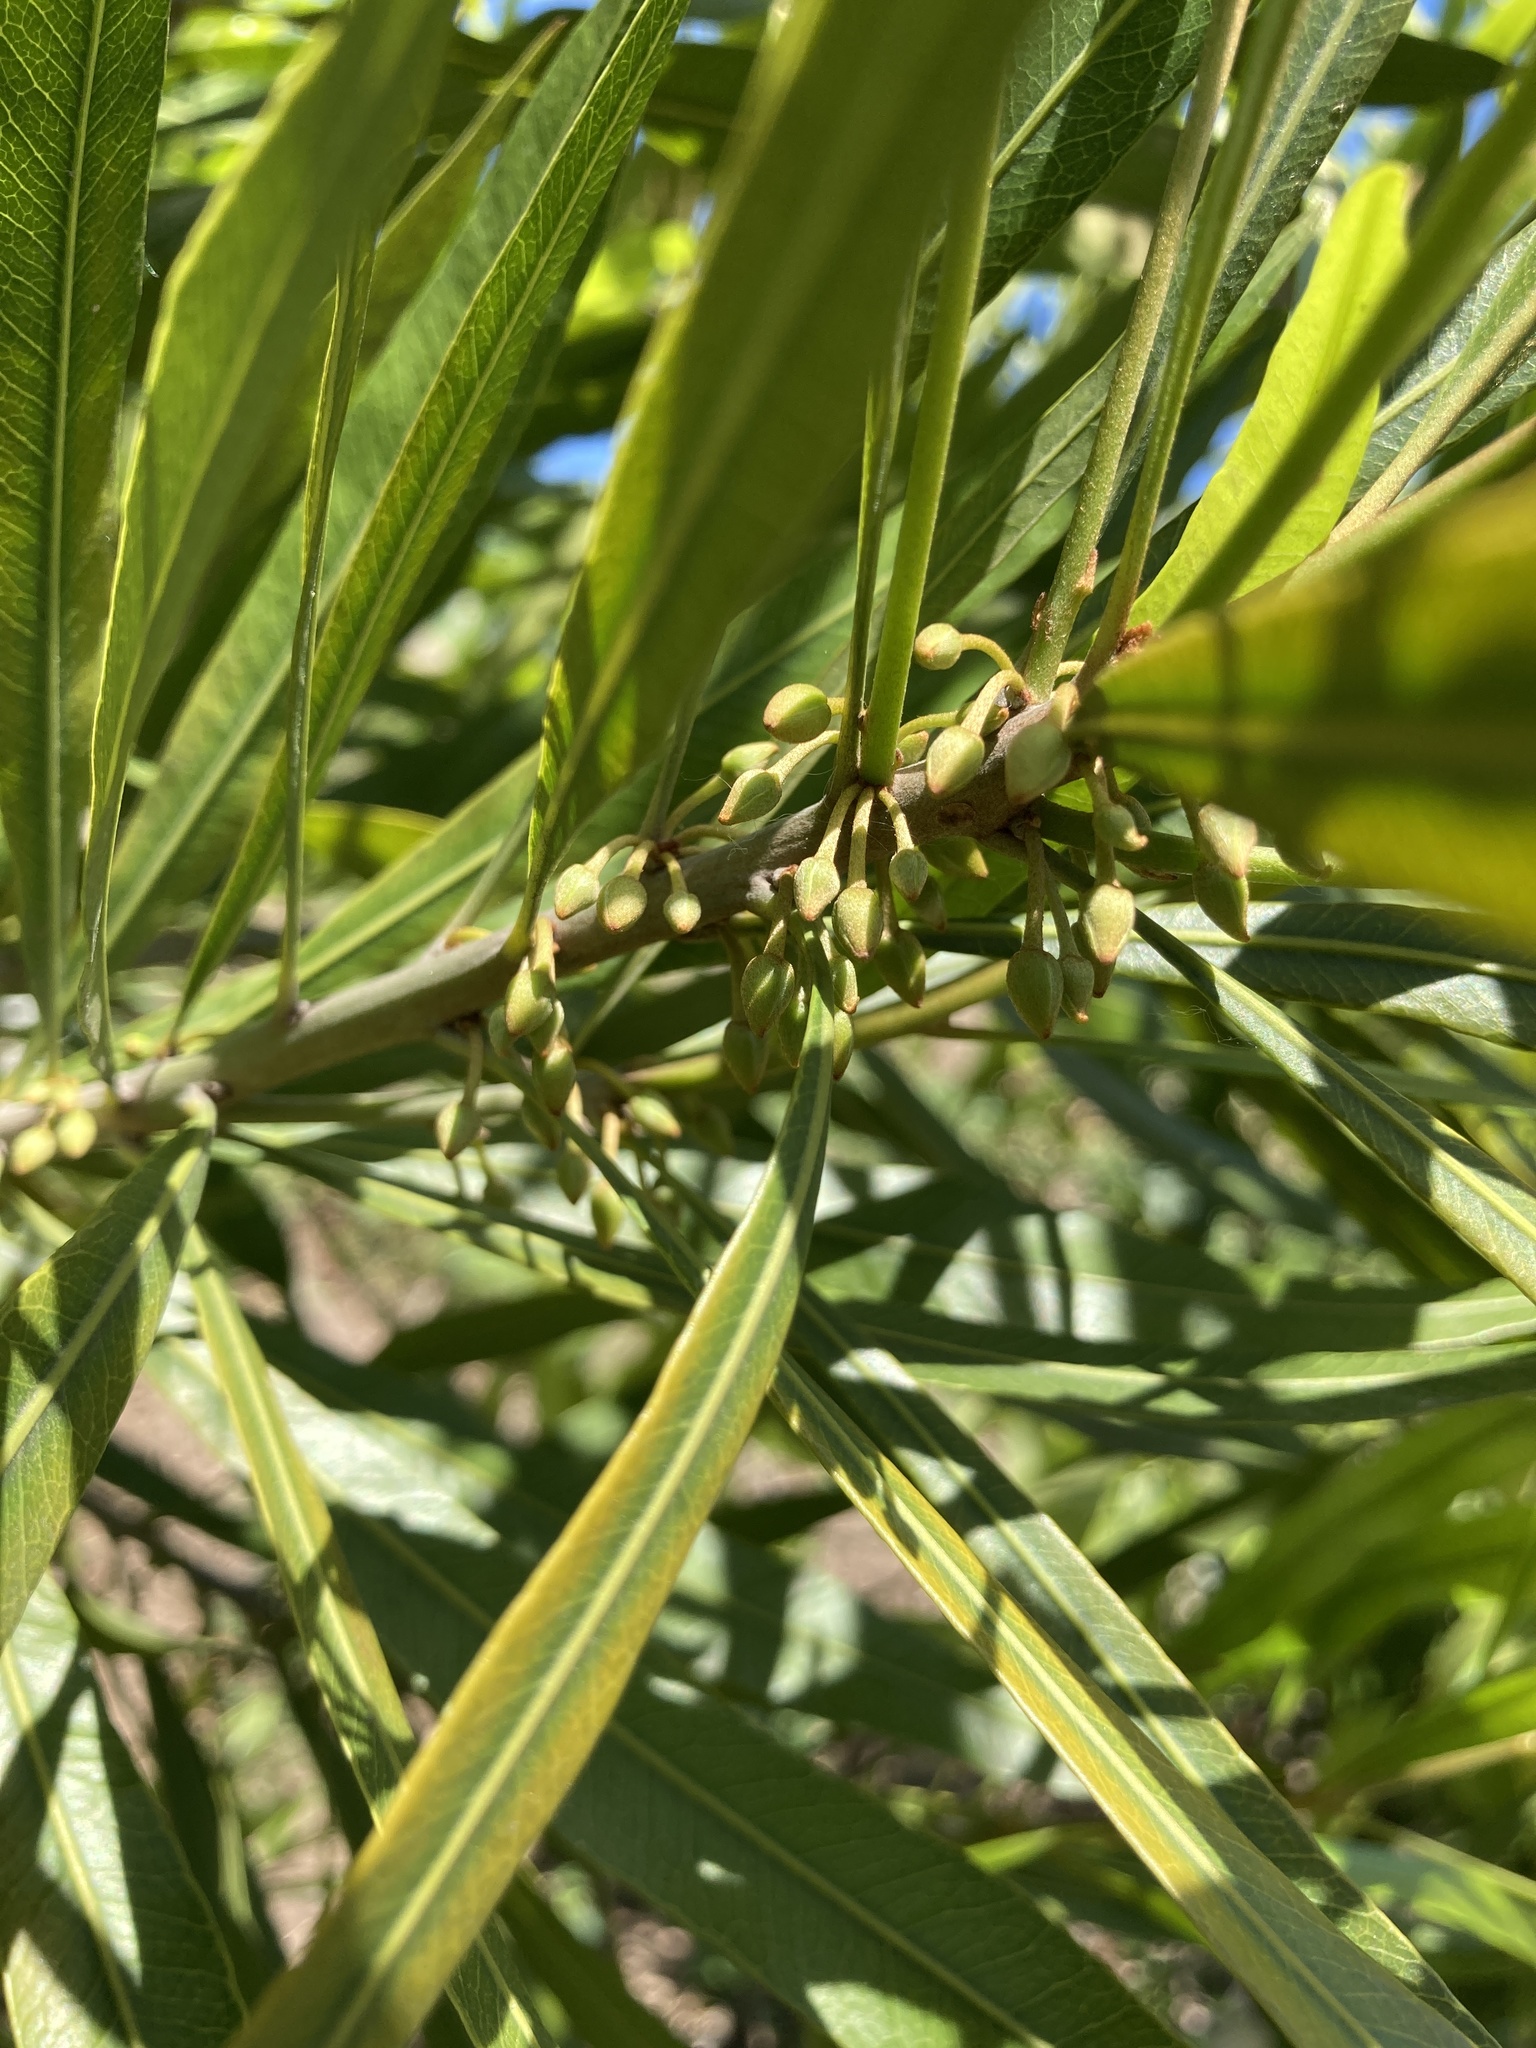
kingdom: Plantae
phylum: Tracheophyta
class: Magnoliopsida
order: Ericales
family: Sapotaceae
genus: Labatia
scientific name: Labatia salicifolia
